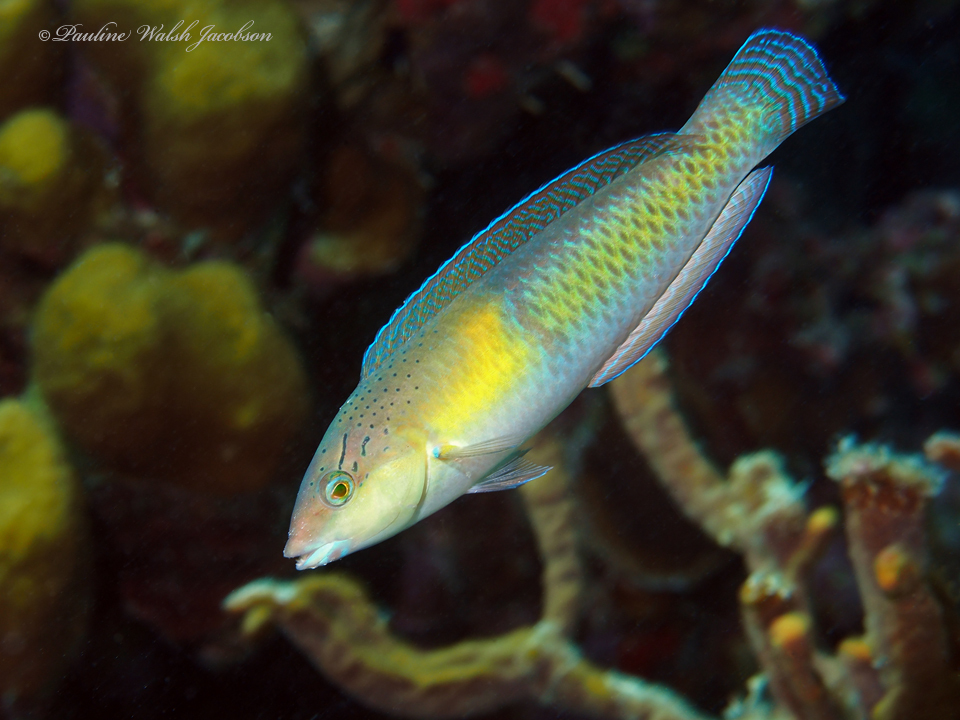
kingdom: Animalia
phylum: Chordata
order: Perciformes
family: Labridae
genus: Halichoeres
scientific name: Halichoeres garnoti
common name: Yellowhead wrasse
